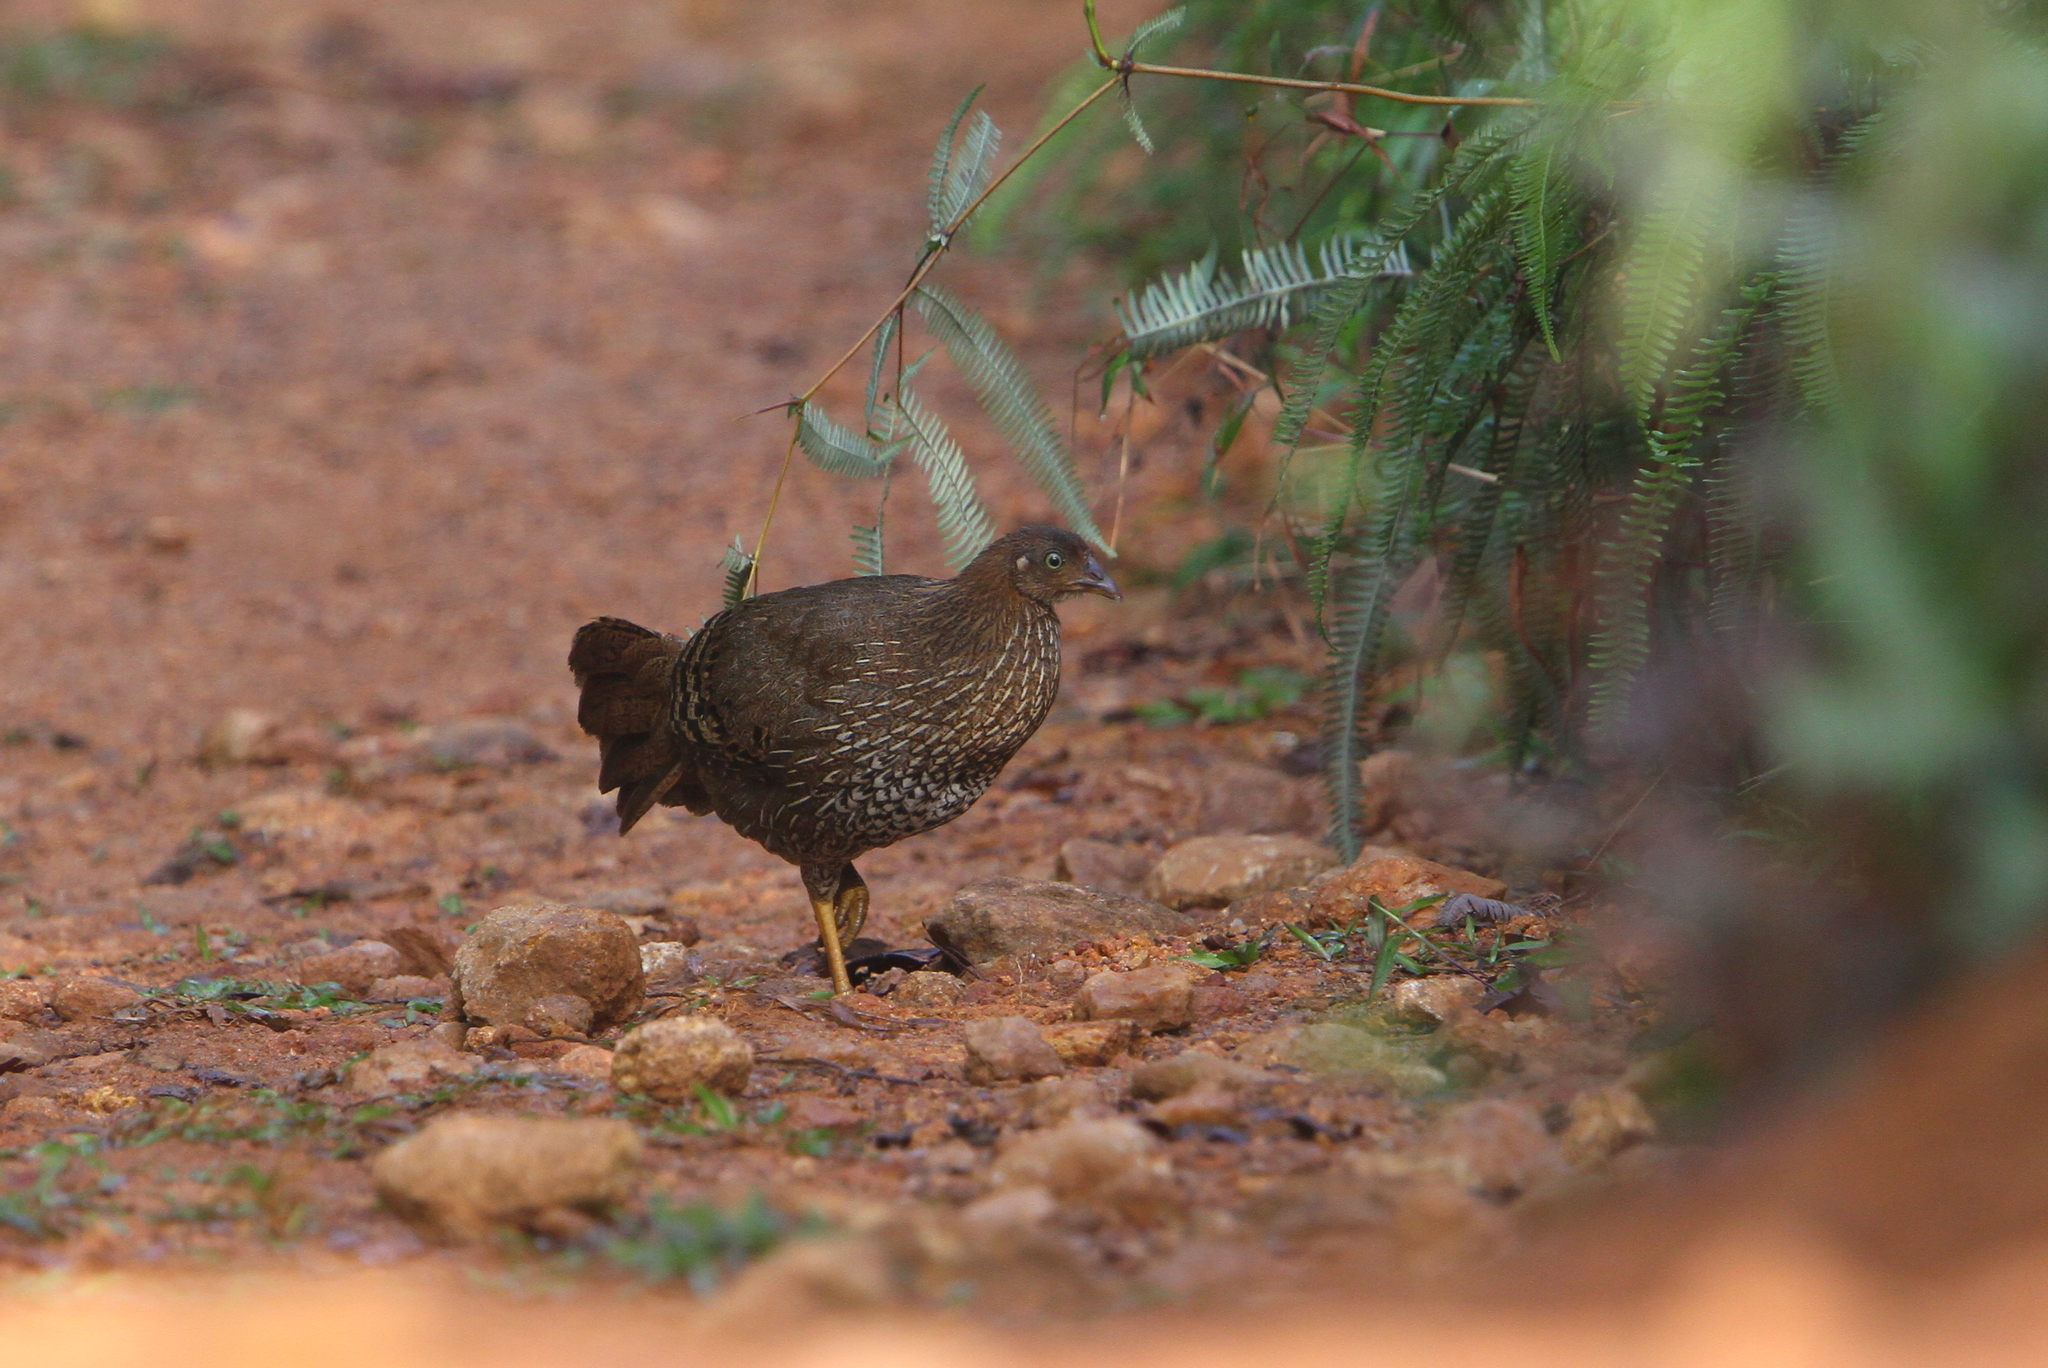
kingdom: Animalia
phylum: Chordata
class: Aves
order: Galliformes
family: Phasianidae
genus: Gallus
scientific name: Gallus lafayettii
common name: Sri lanka junglefowl
